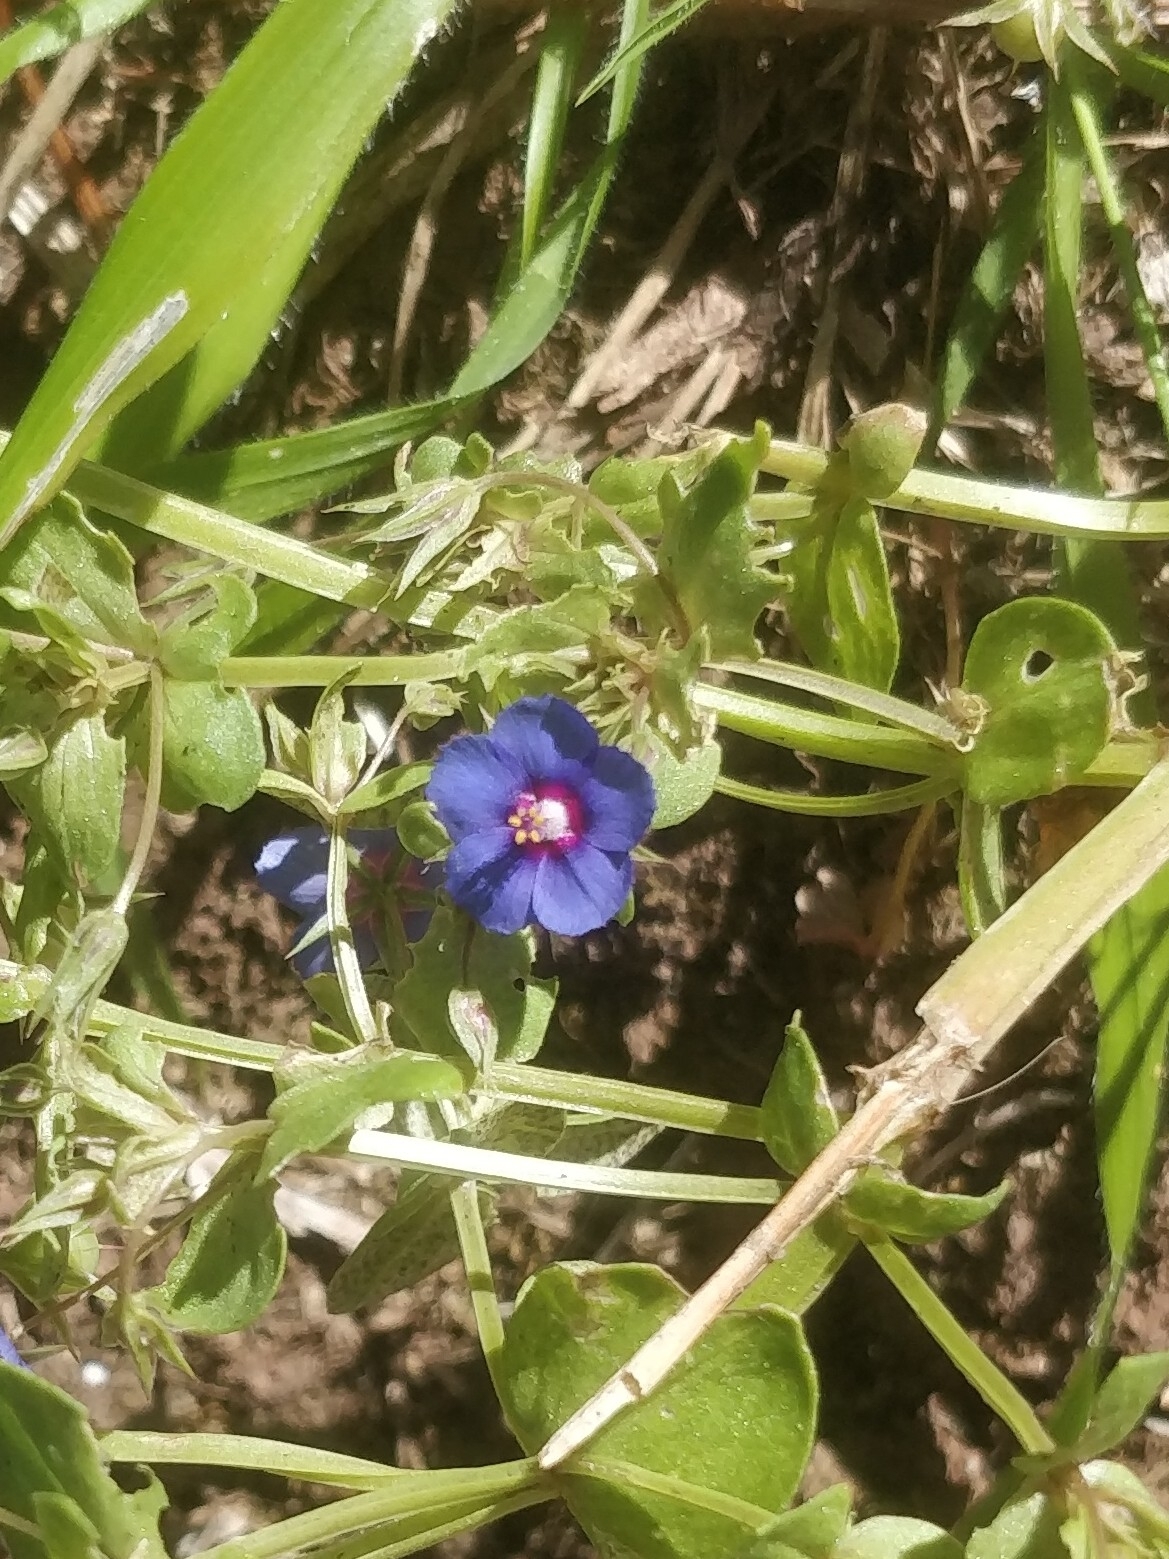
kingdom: Plantae
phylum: Tracheophyta
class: Magnoliopsida
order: Ericales
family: Primulaceae
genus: Lysimachia
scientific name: Lysimachia loeflingii
